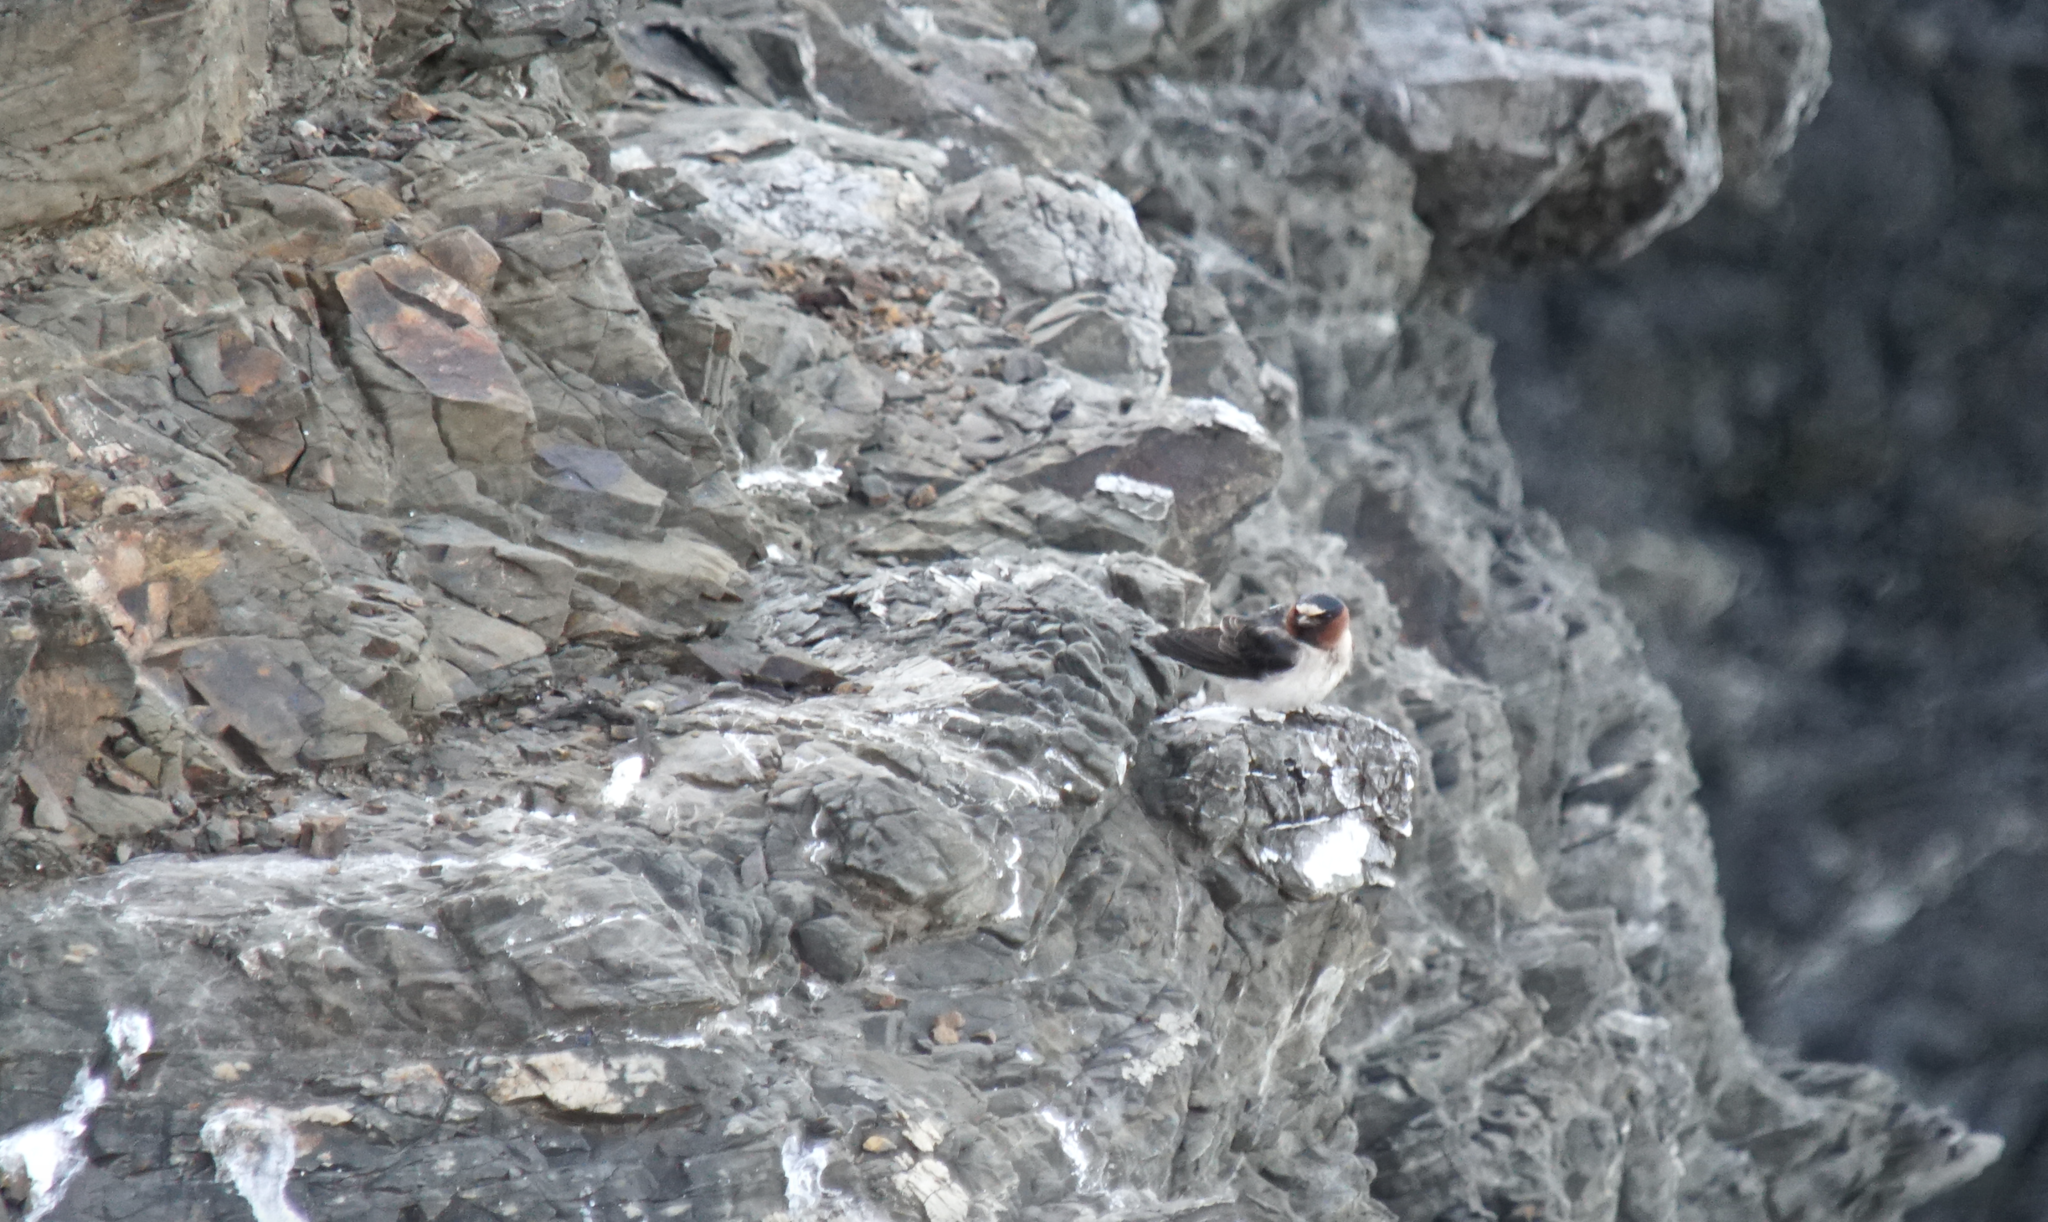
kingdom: Animalia
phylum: Chordata
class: Aves
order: Passeriformes
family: Hirundinidae
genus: Petrochelidon
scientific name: Petrochelidon pyrrhonota
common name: American cliff swallow
